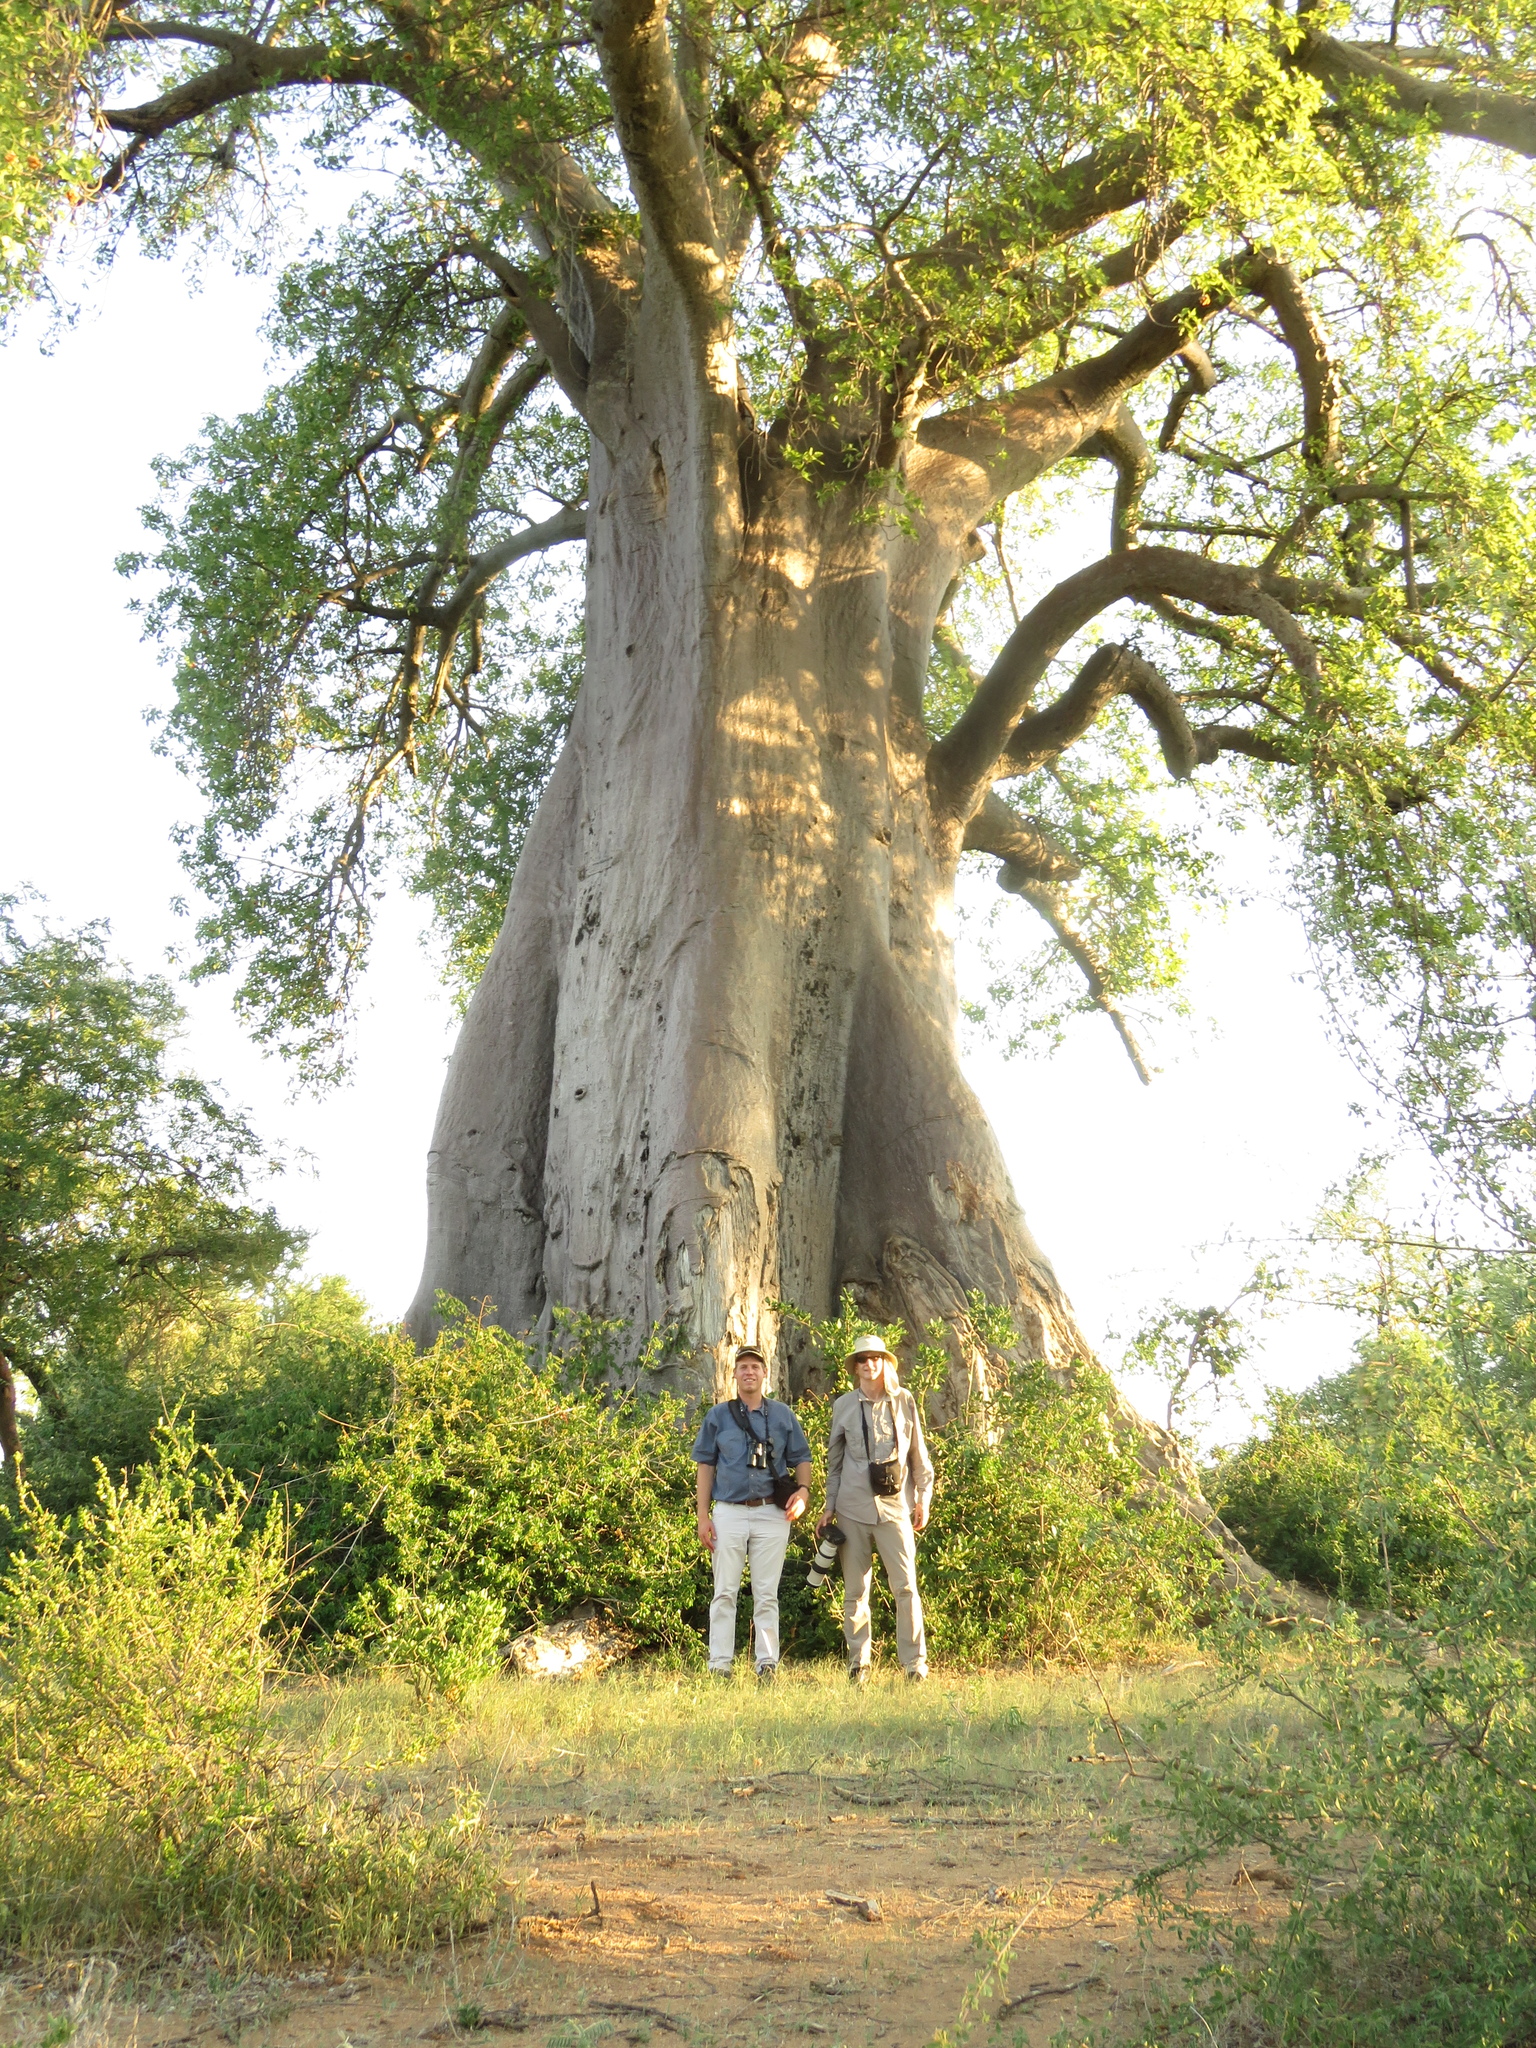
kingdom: Plantae
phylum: Tracheophyta
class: Magnoliopsida
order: Malvales
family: Malvaceae
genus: Adansonia
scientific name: Adansonia digitata
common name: Dead-rat-tree
